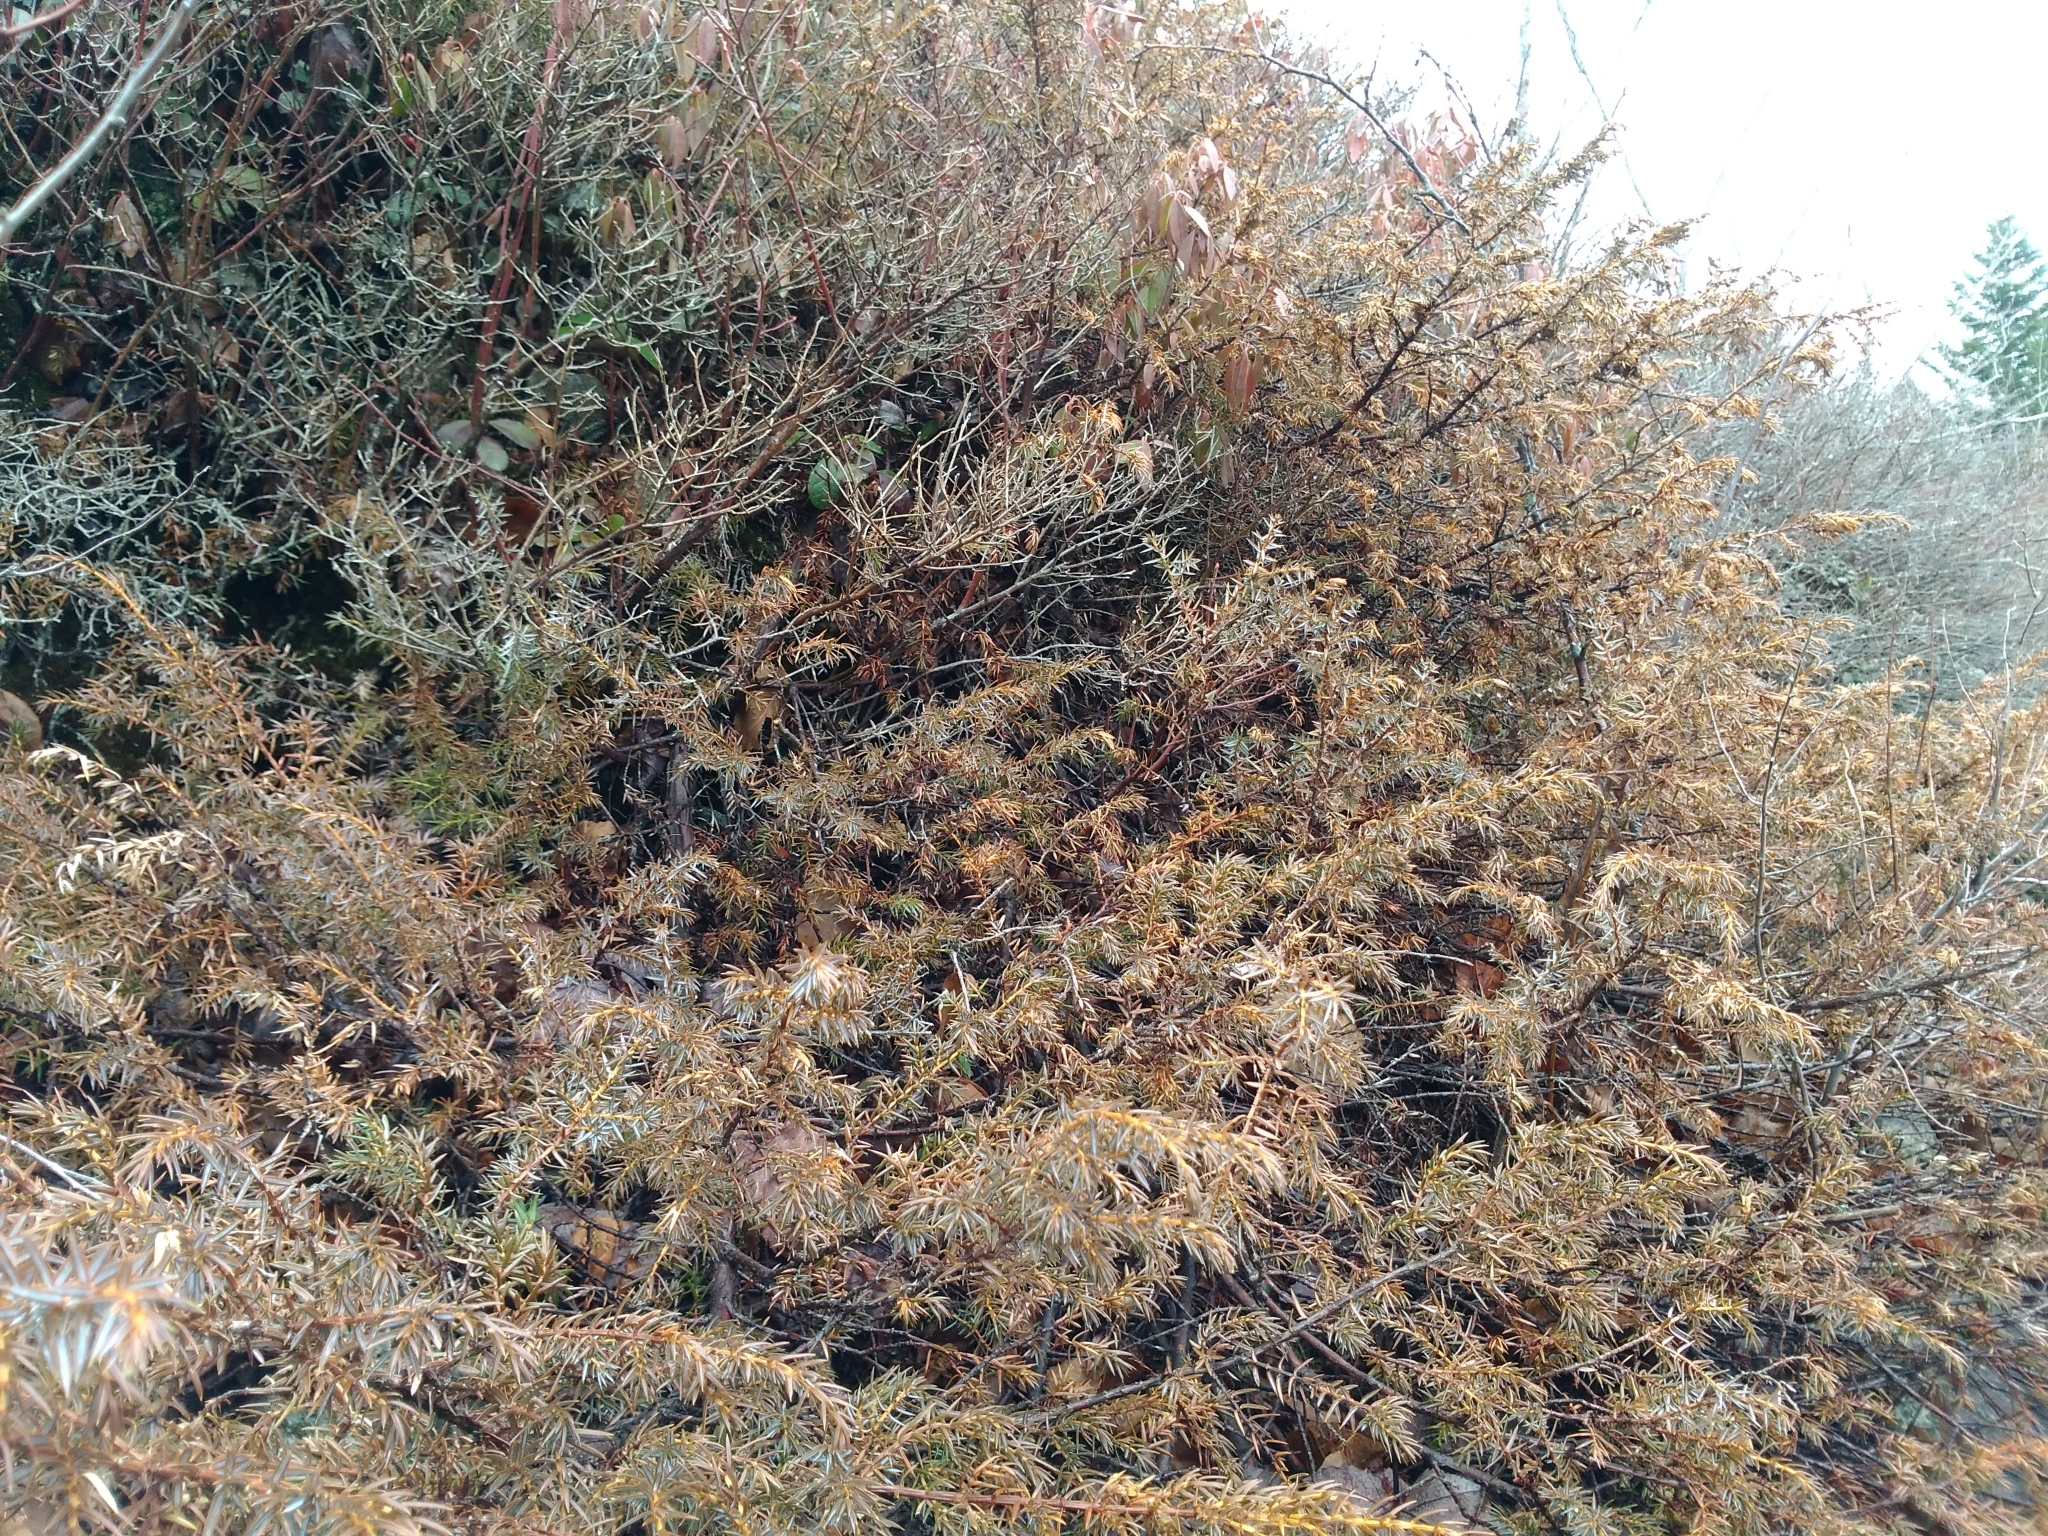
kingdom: Plantae
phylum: Tracheophyta
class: Pinopsida
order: Pinales
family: Cupressaceae
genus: Juniperus
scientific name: Juniperus communis
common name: Common juniper
